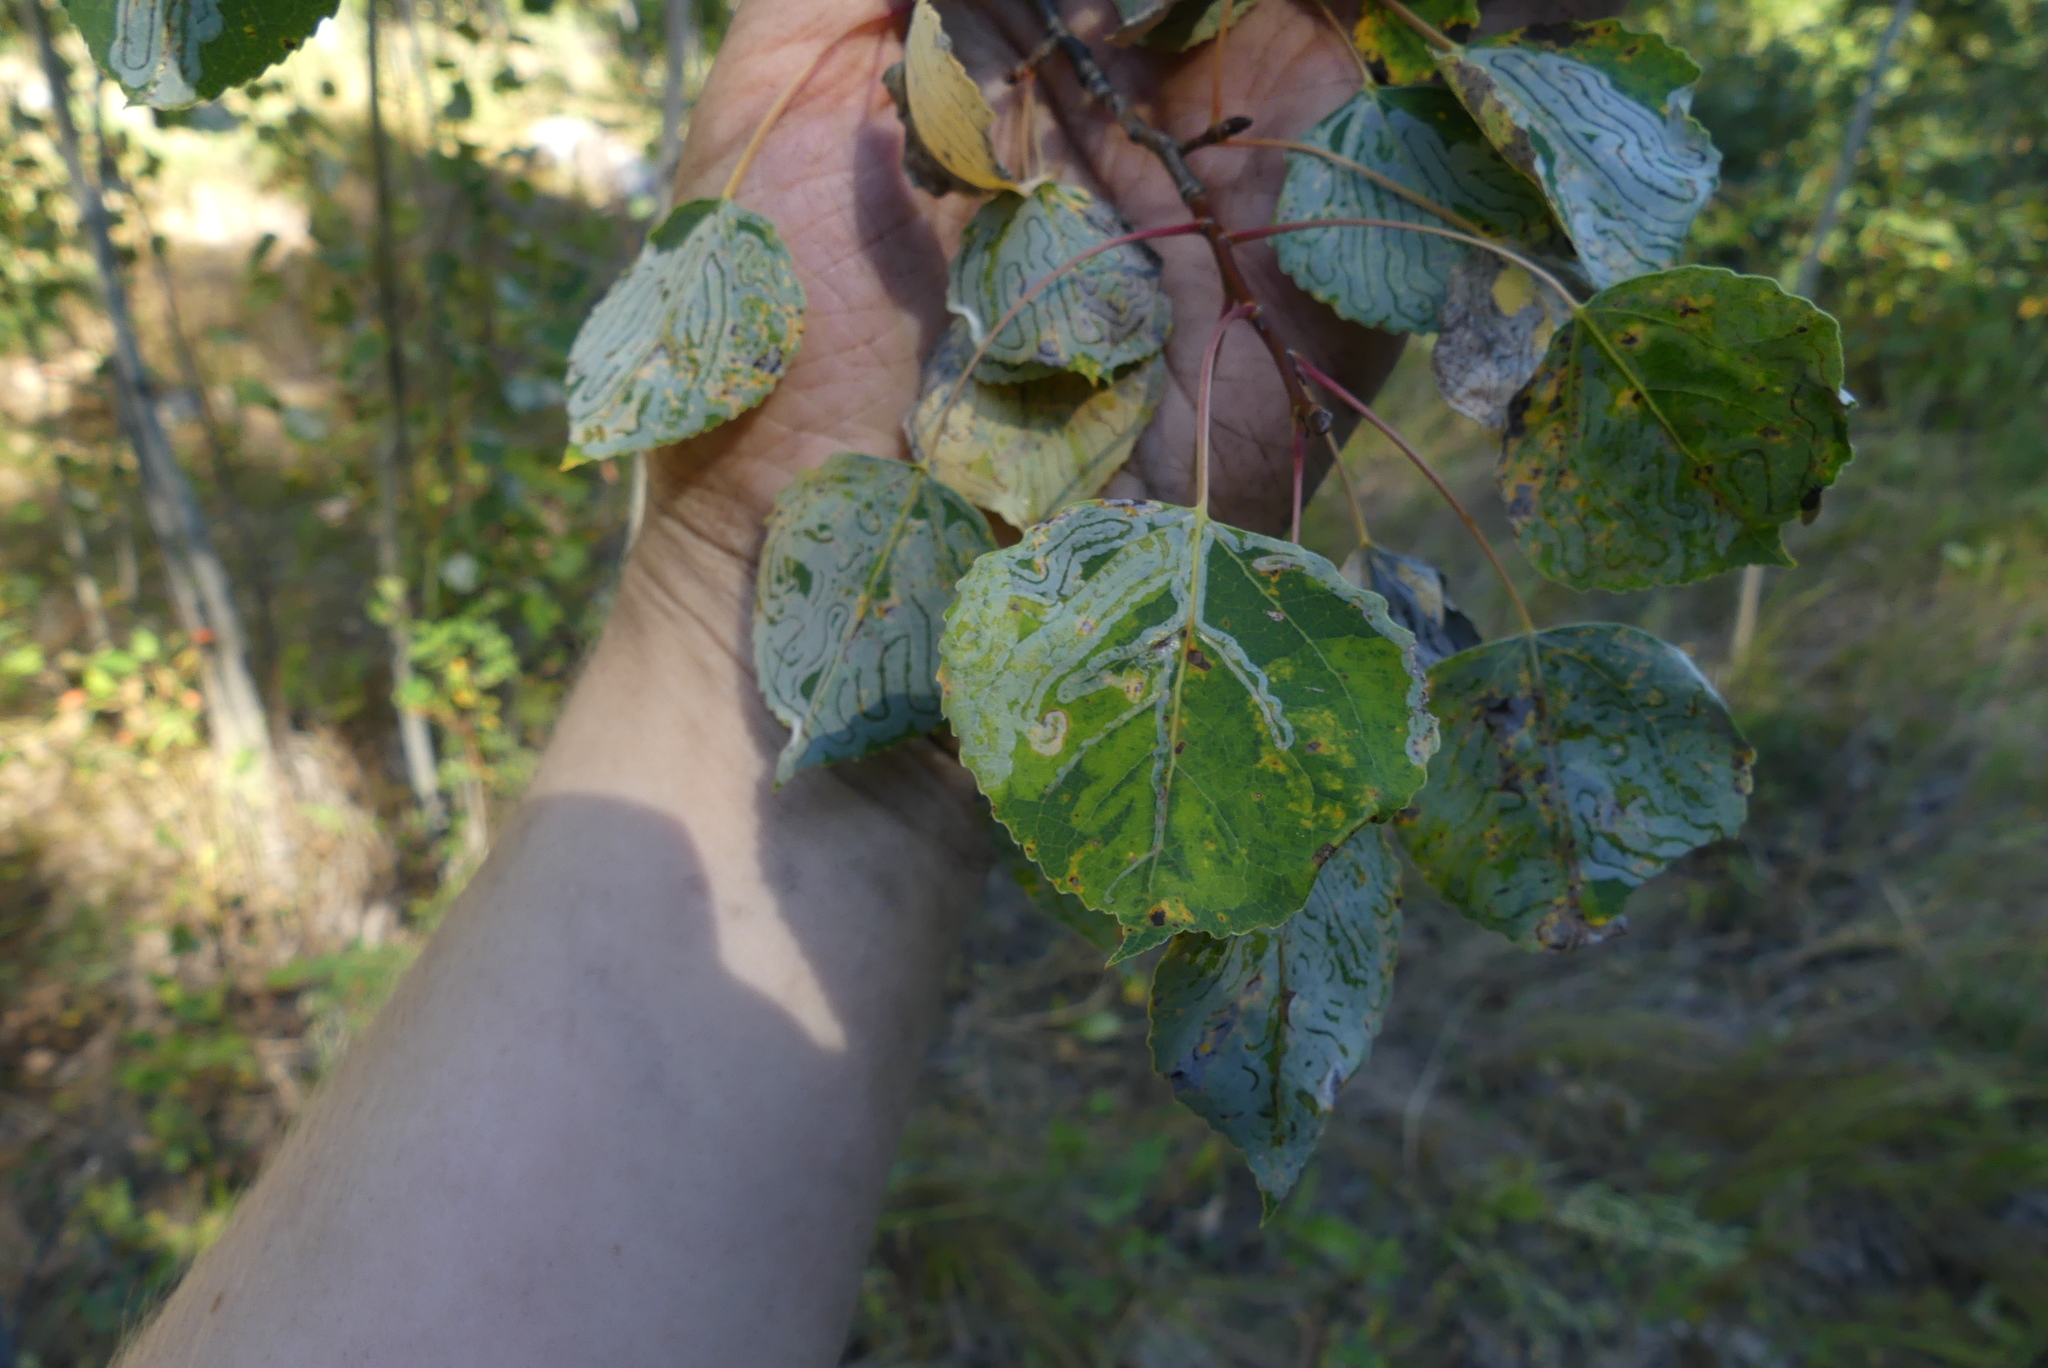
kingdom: Plantae
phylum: Tracheophyta
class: Magnoliopsida
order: Malpighiales
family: Salicaceae
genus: Populus
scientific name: Populus tremuloides
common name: Quaking aspen
